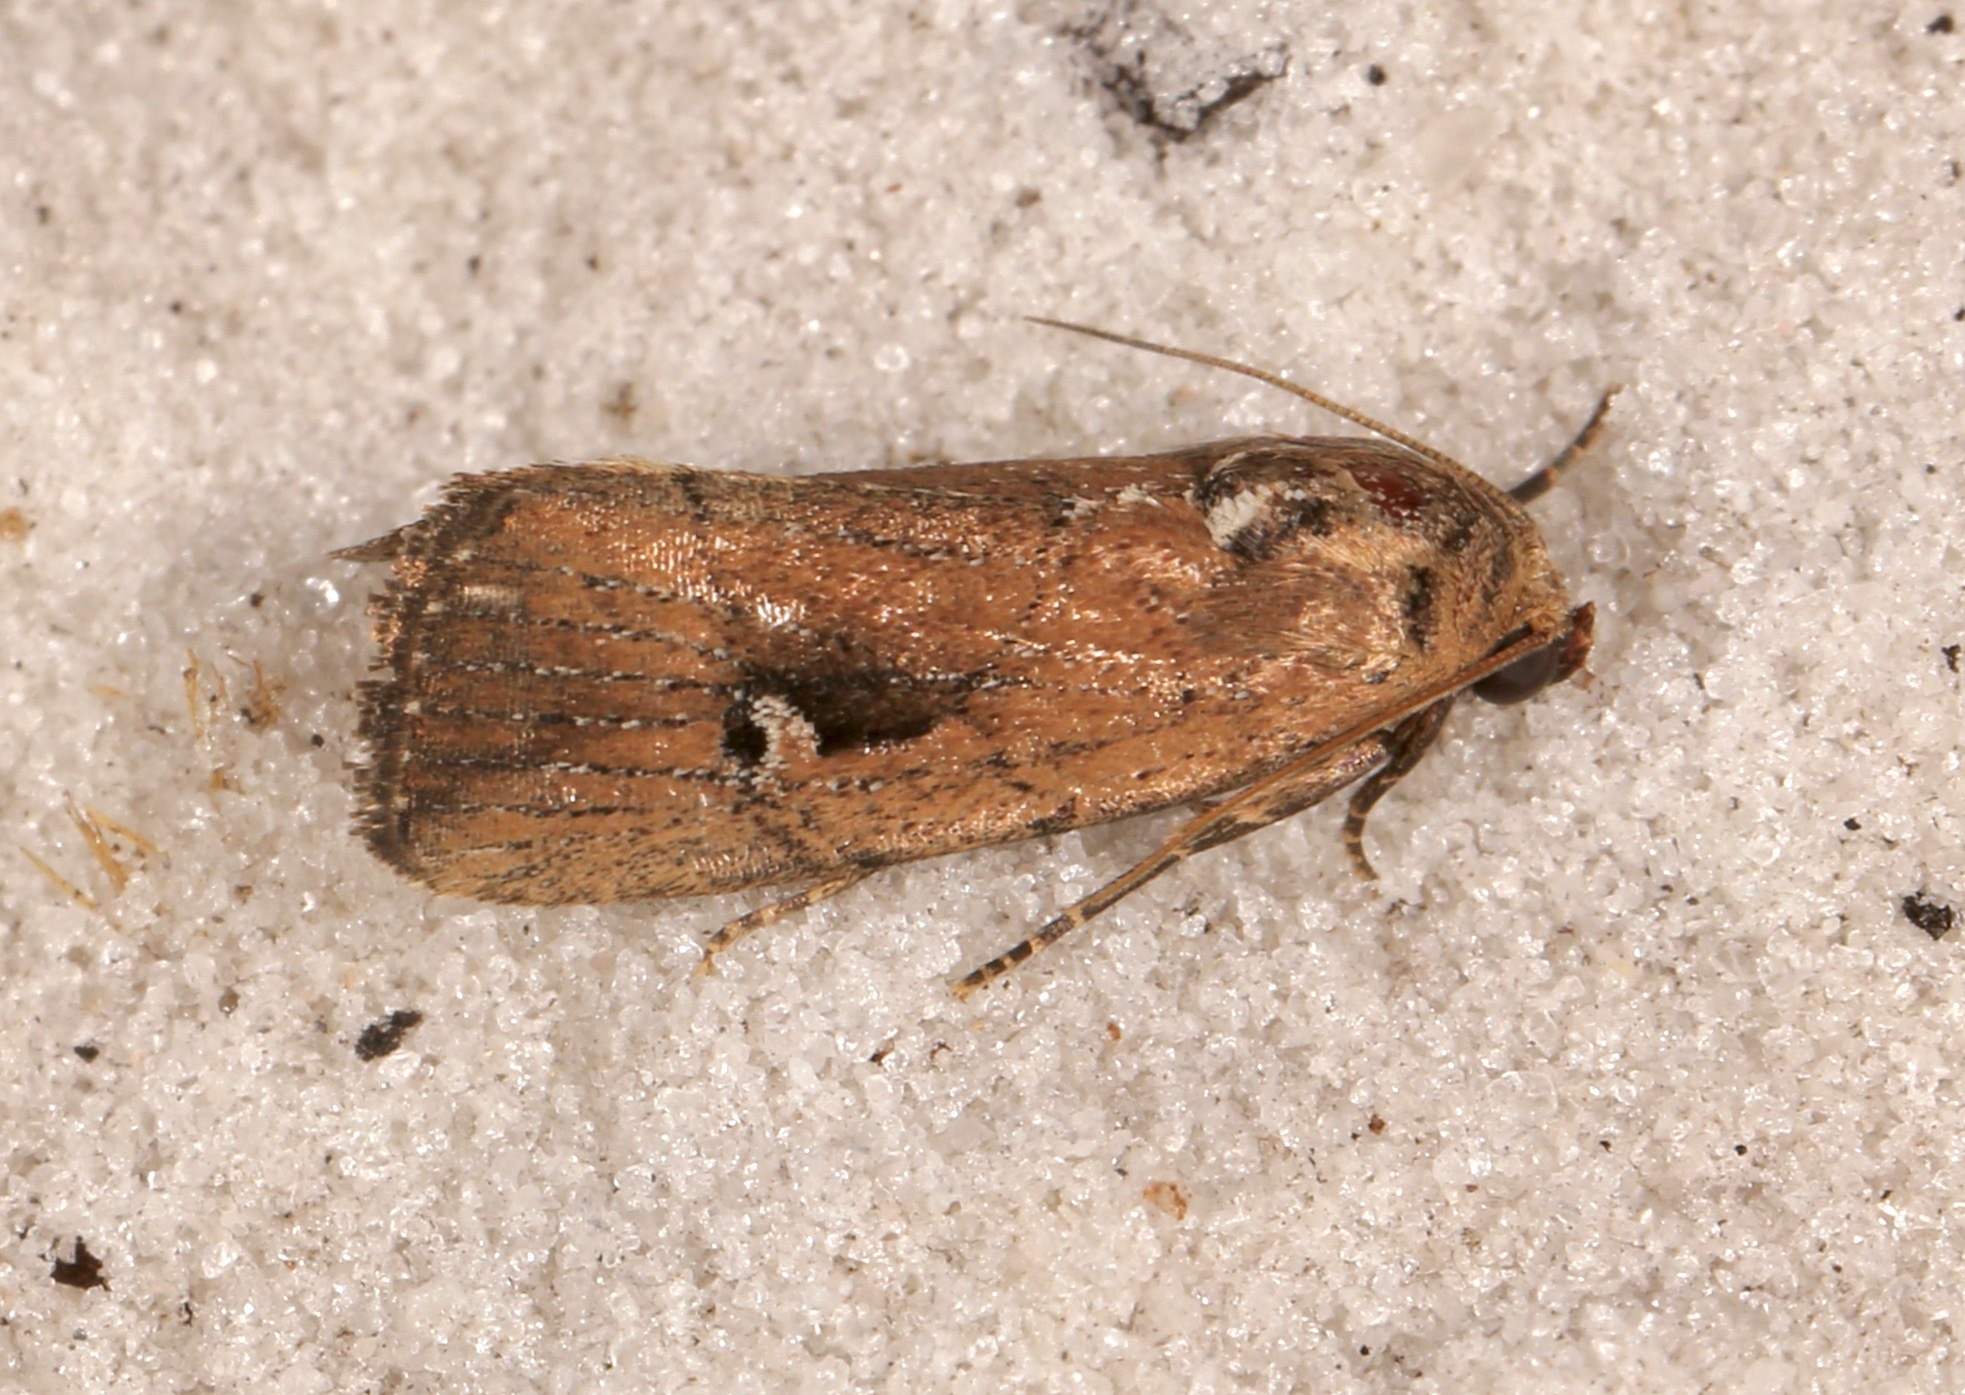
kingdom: Animalia
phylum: Arthropoda
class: Insecta
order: Lepidoptera
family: Noctuidae
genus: Elaphria
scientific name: Elaphria nucicolora
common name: Sugarcane midget moth
